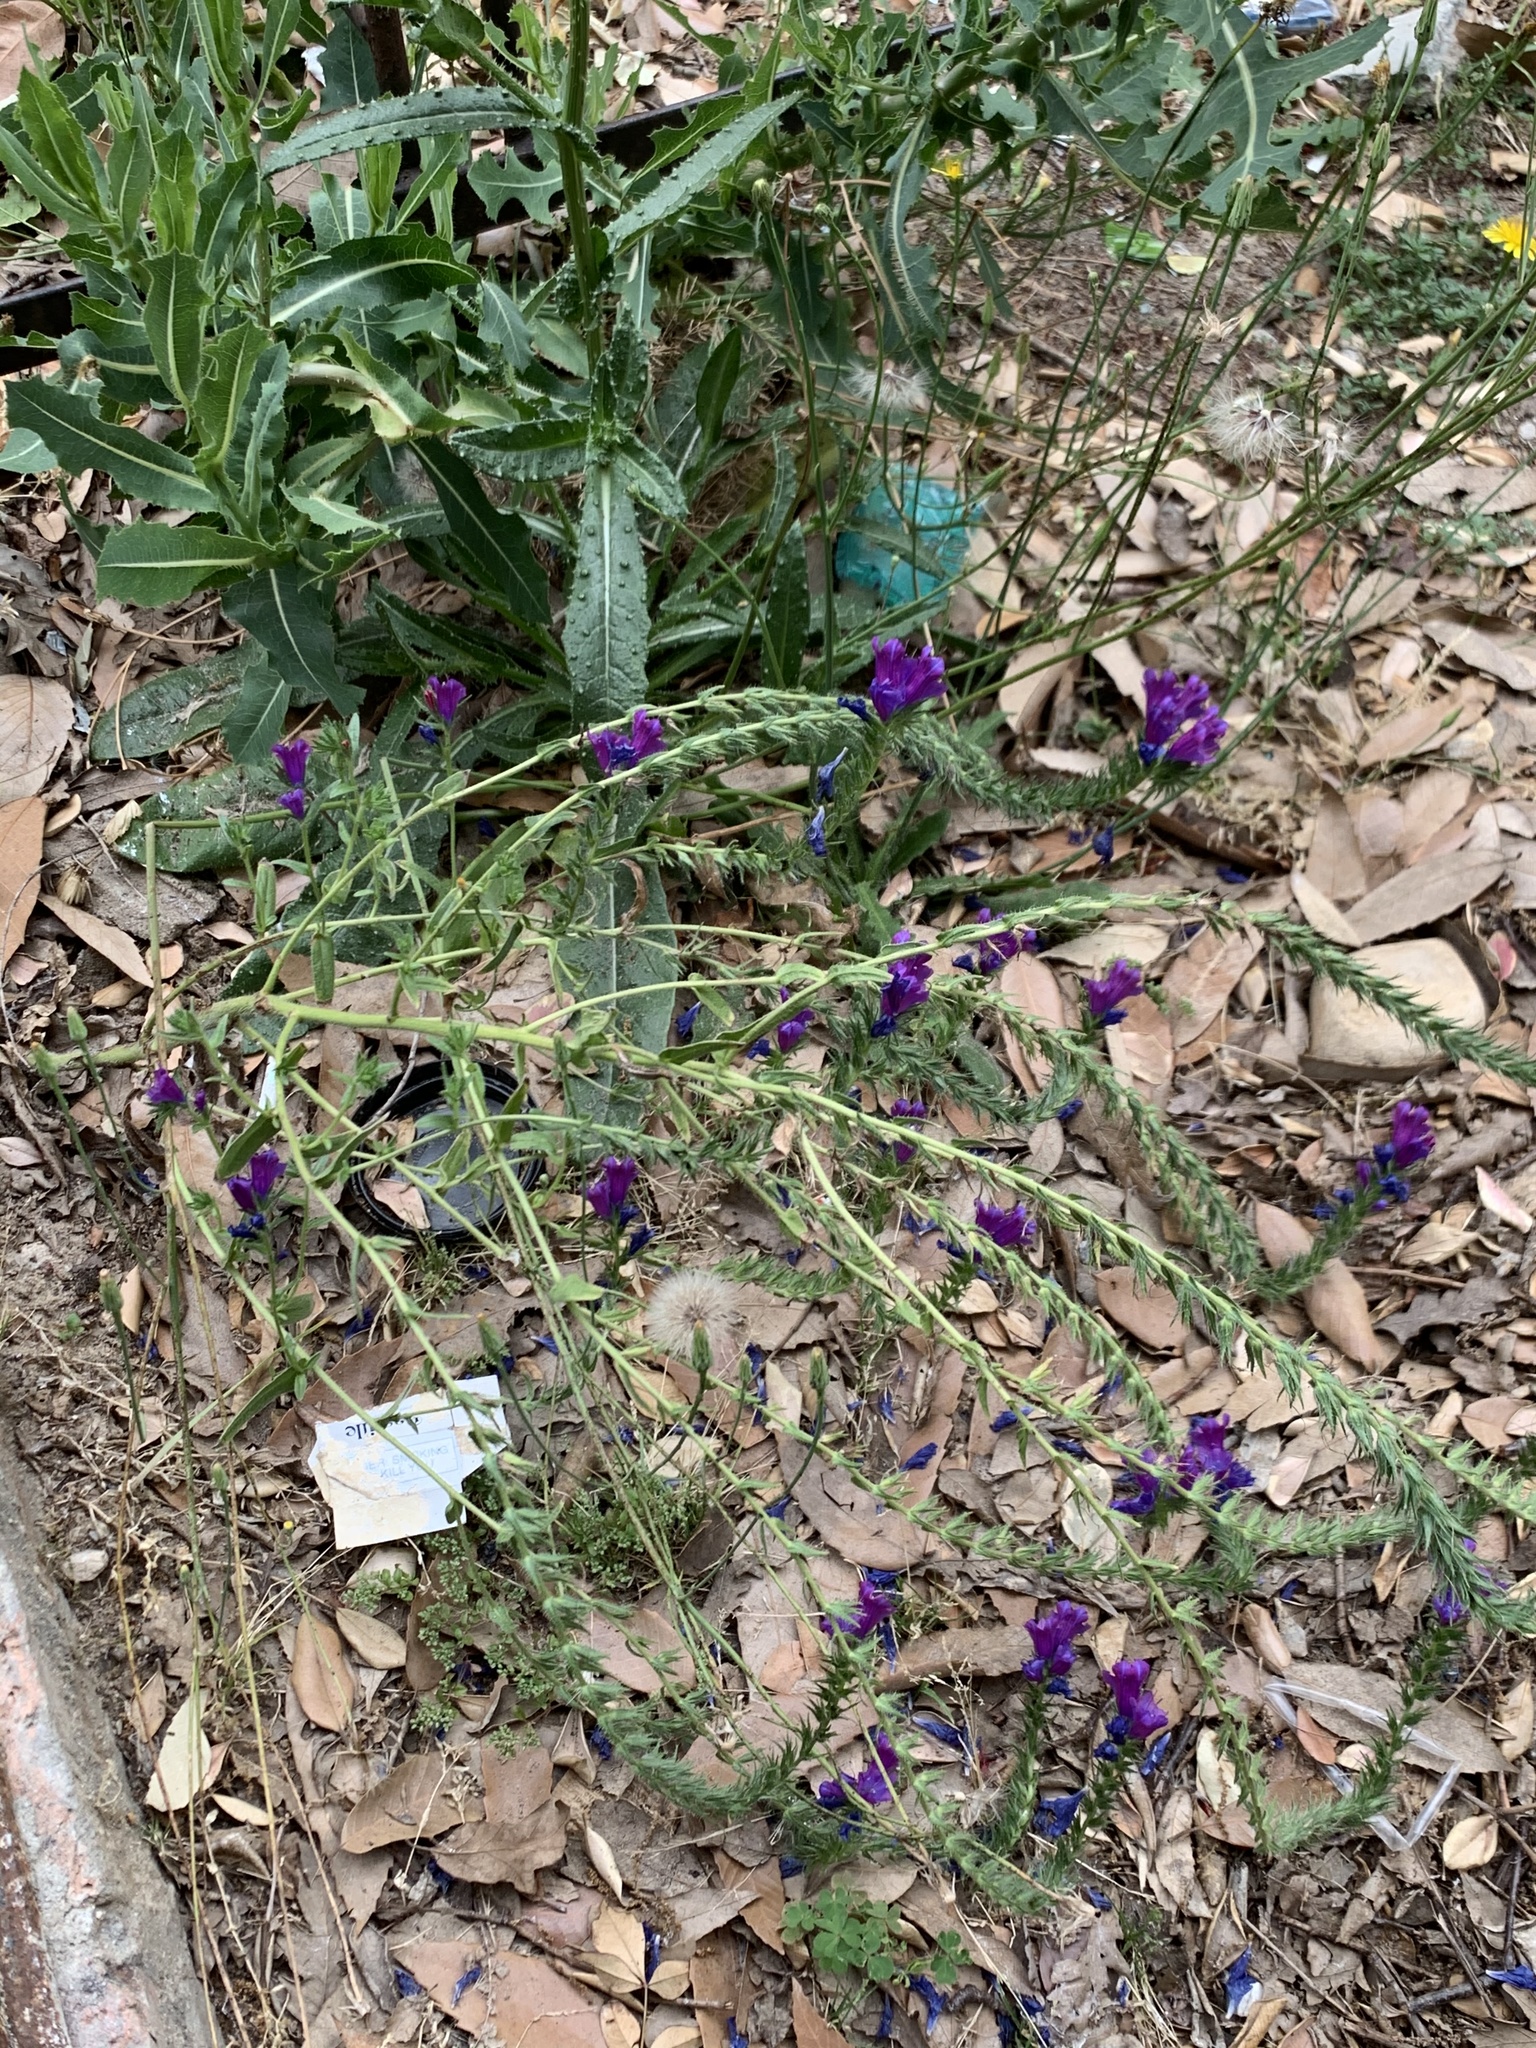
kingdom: Plantae
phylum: Tracheophyta
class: Magnoliopsida
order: Boraginales
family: Boraginaceae
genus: Echium
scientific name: Echium plantagineum
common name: Purple viper's-bugloss
